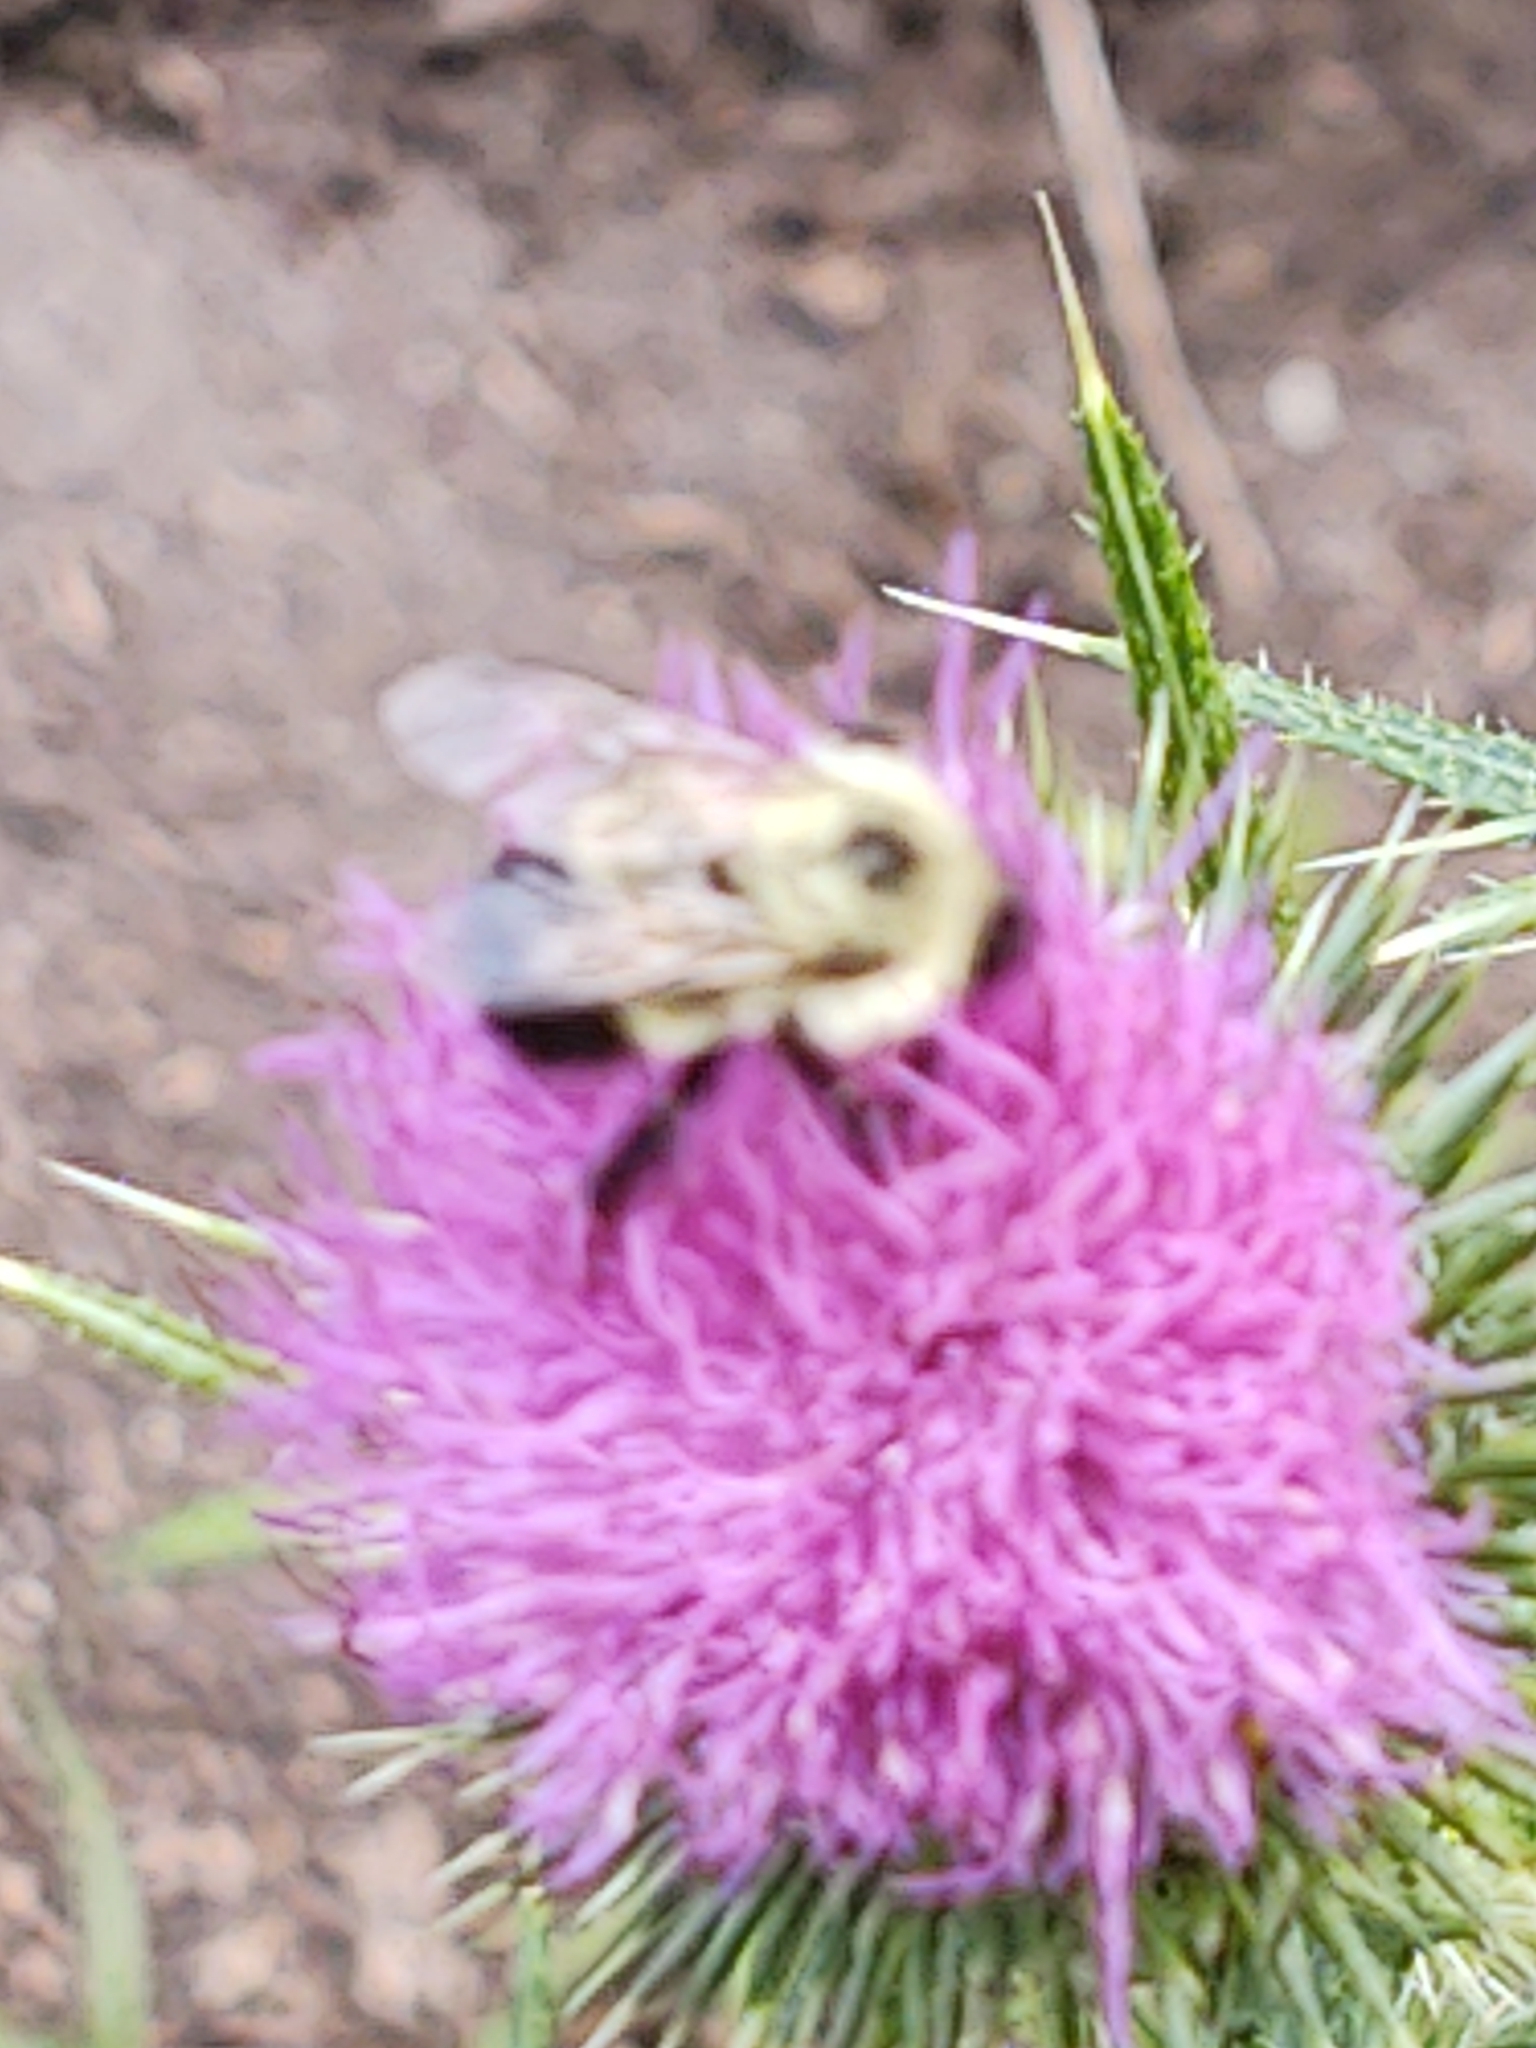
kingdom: Animalia
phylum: Arthropoda
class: Insecta
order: Hymenoptera
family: Apidae
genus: Pyrobombus
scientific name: Pyrobombus
